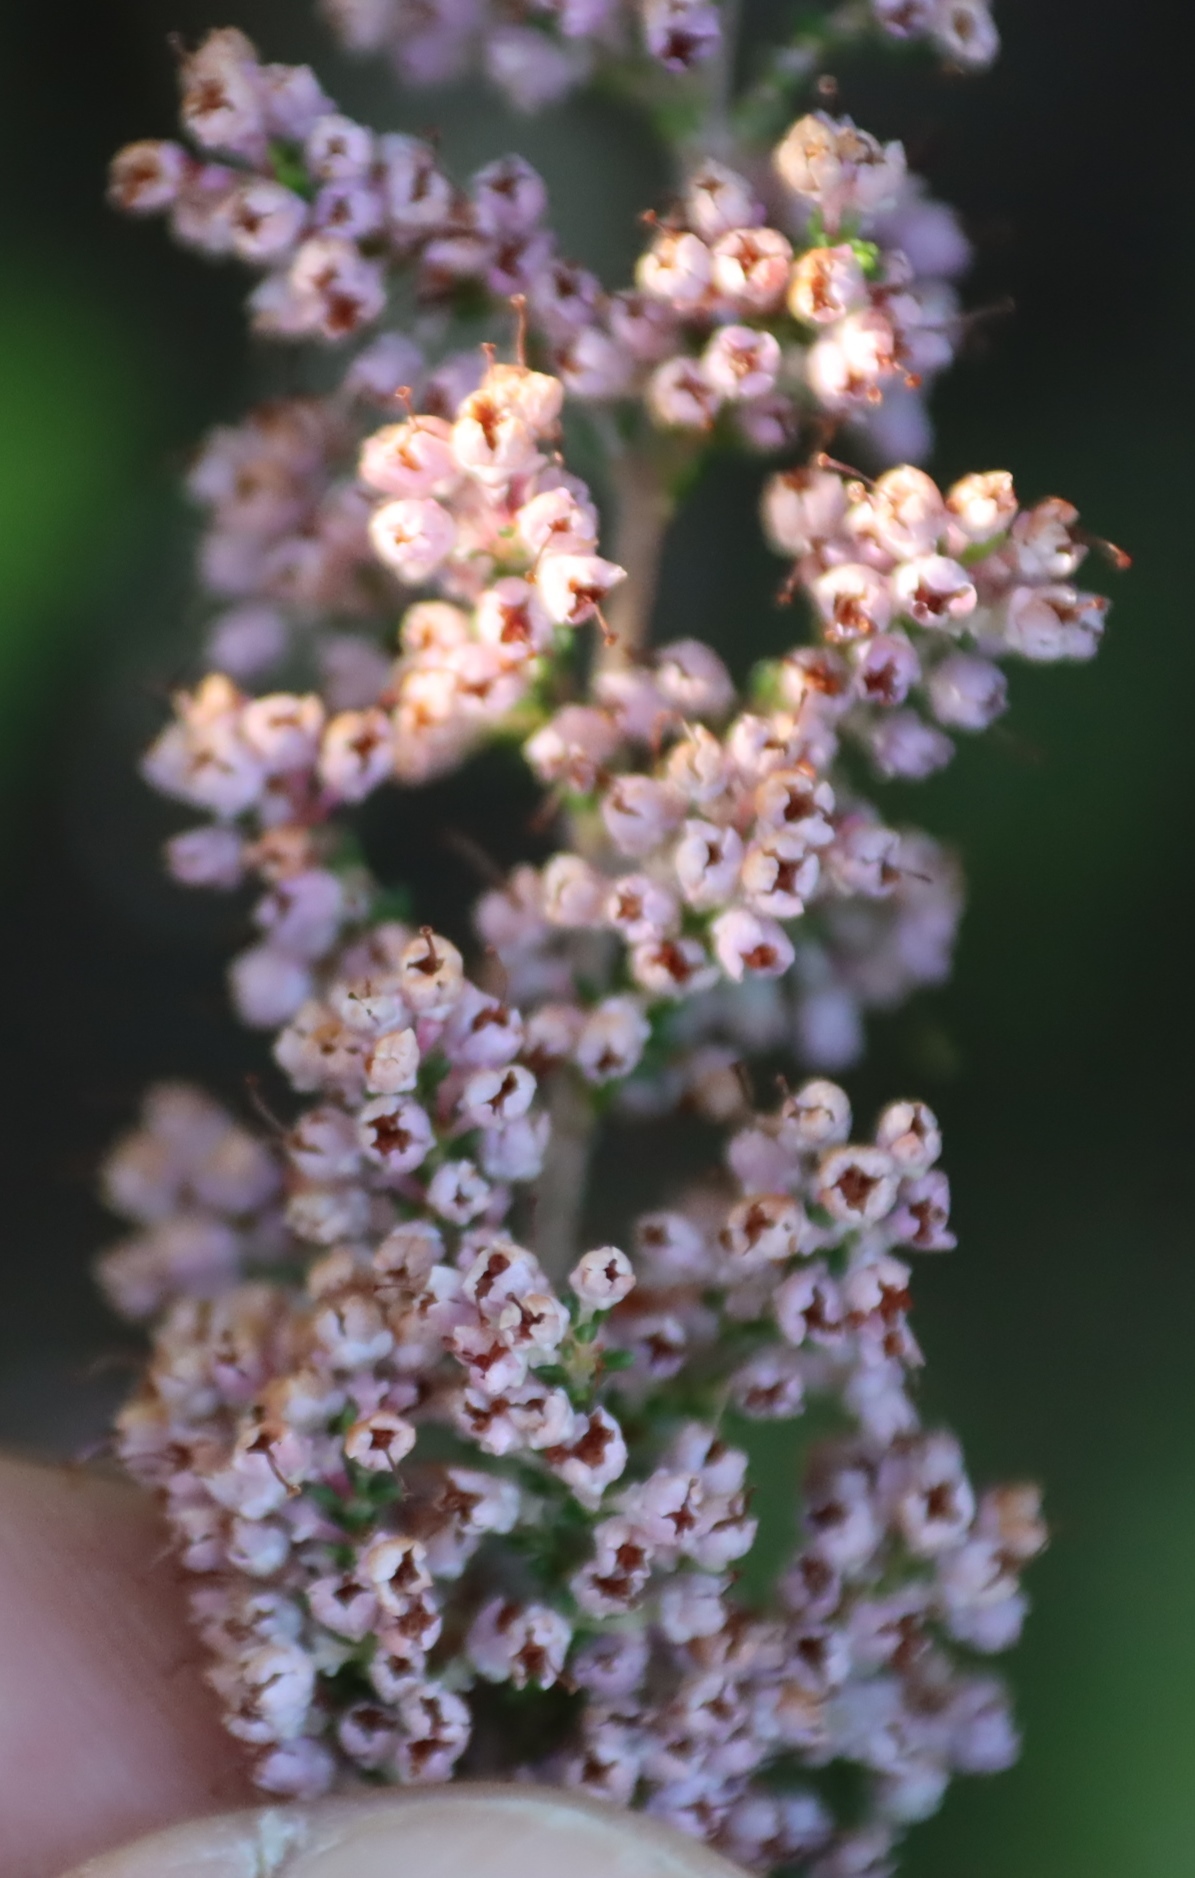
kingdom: Plantae
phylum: Tracheophyta
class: Magnoliopsida
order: Ericales
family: Ericaceae
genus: Erica
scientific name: Erica sparsa
